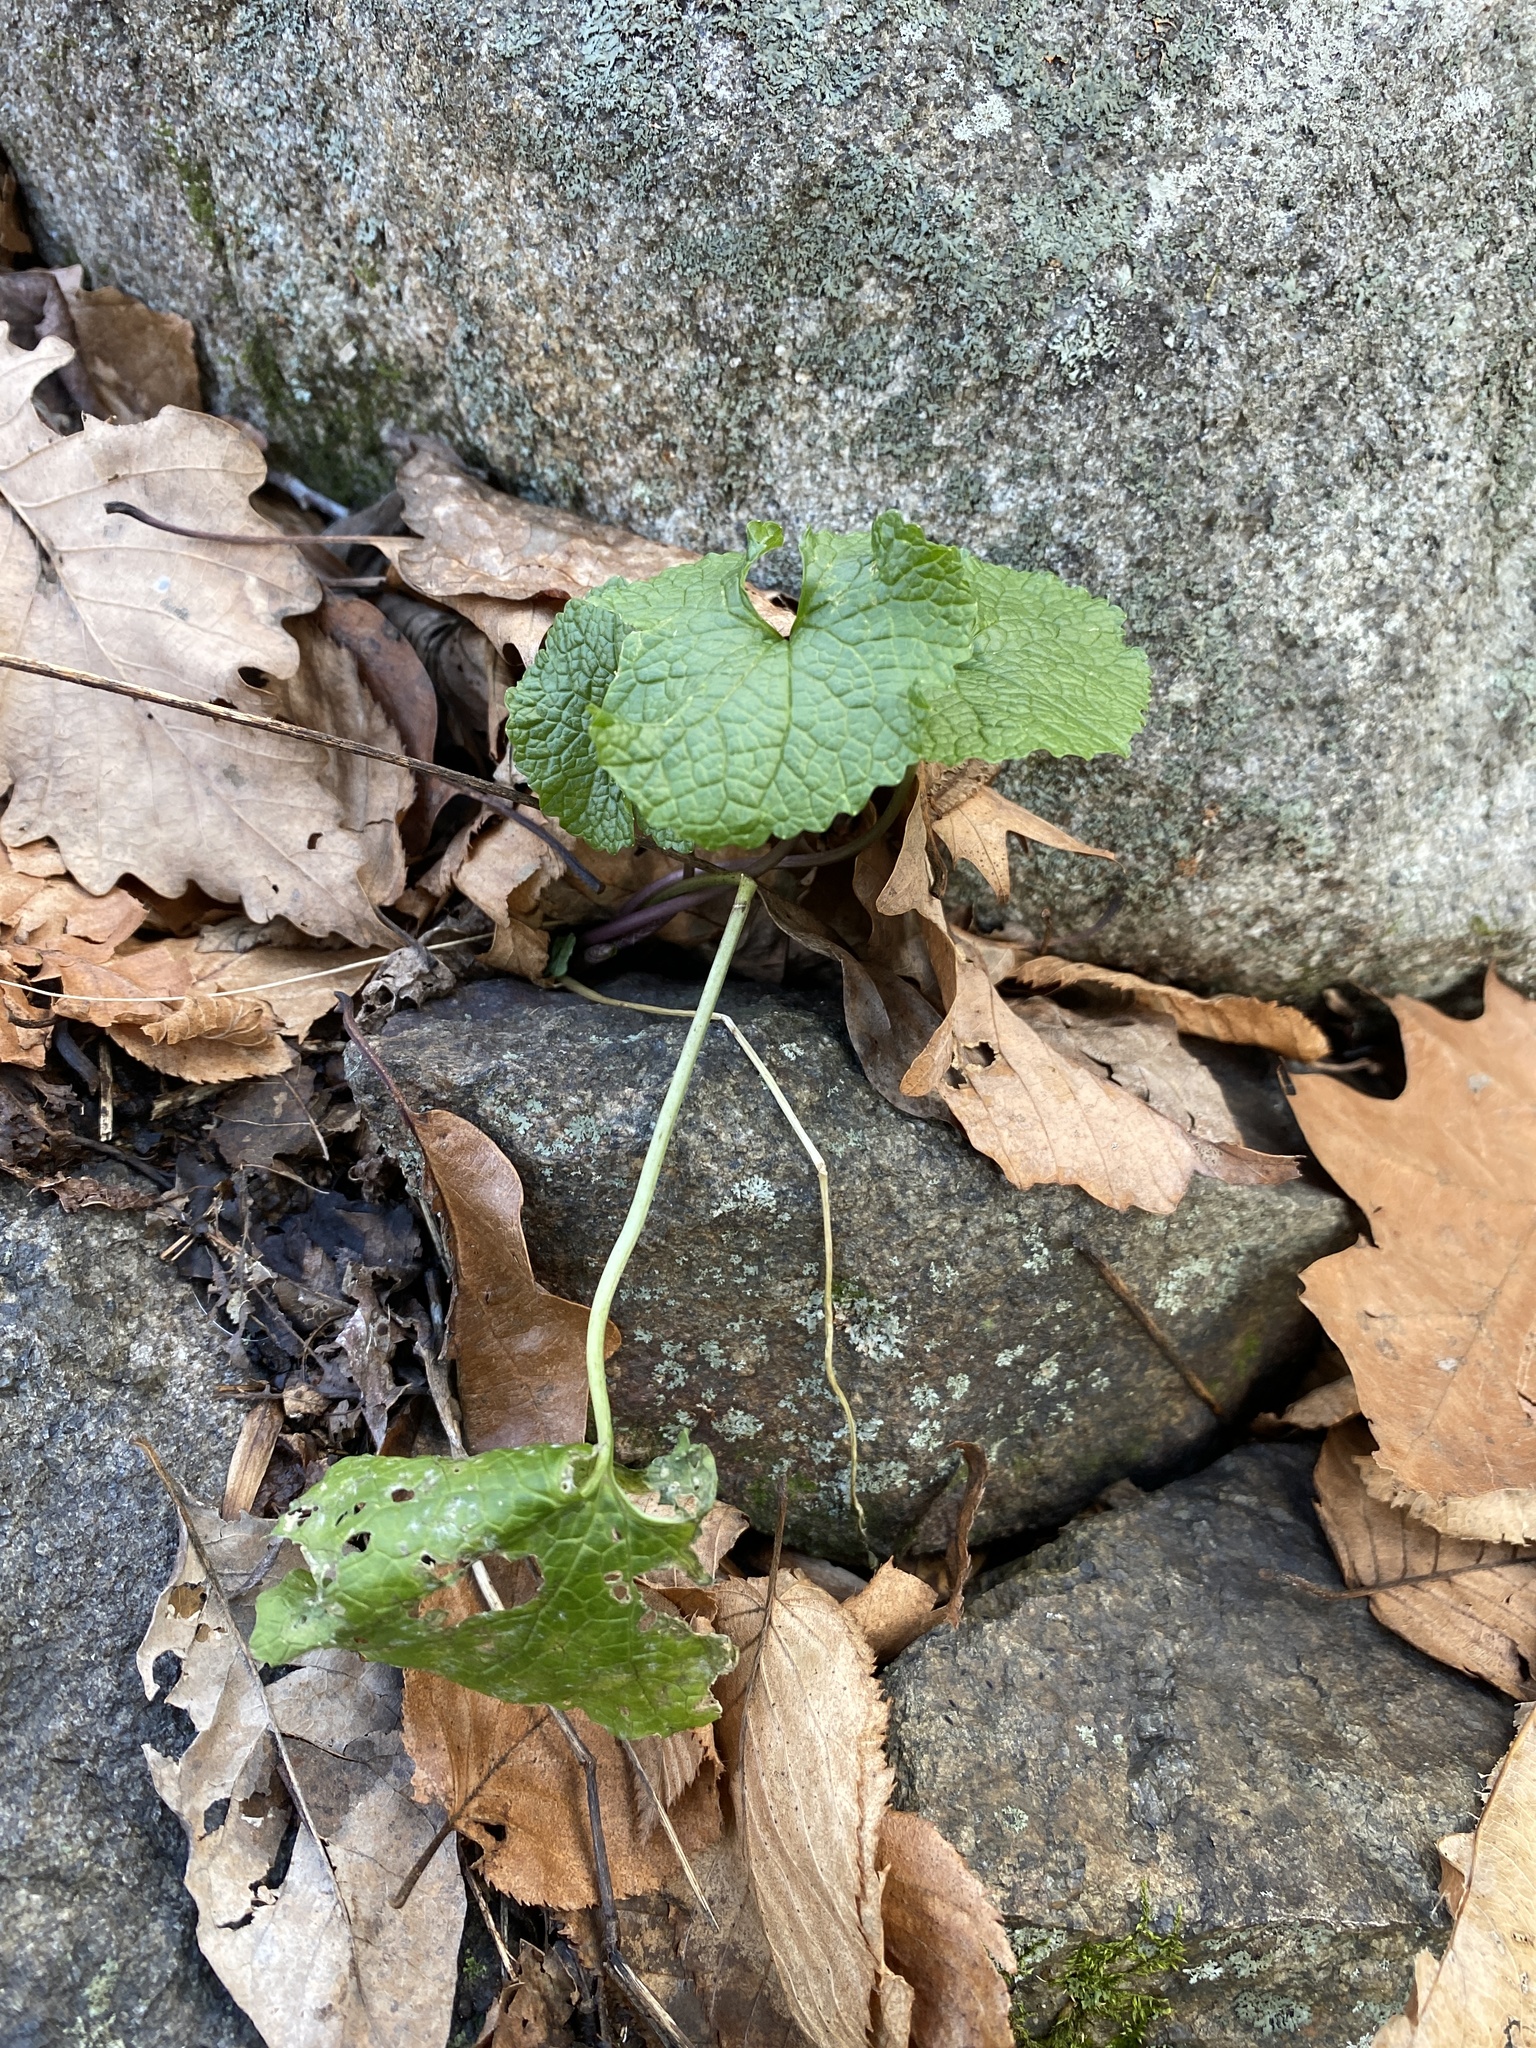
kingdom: Plantae
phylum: Tracheophyta
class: Magnoliopsida
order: Brassicales
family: Brassicaceae
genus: Alliaria
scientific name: Alliaria petiolata
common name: Garlic mustard
